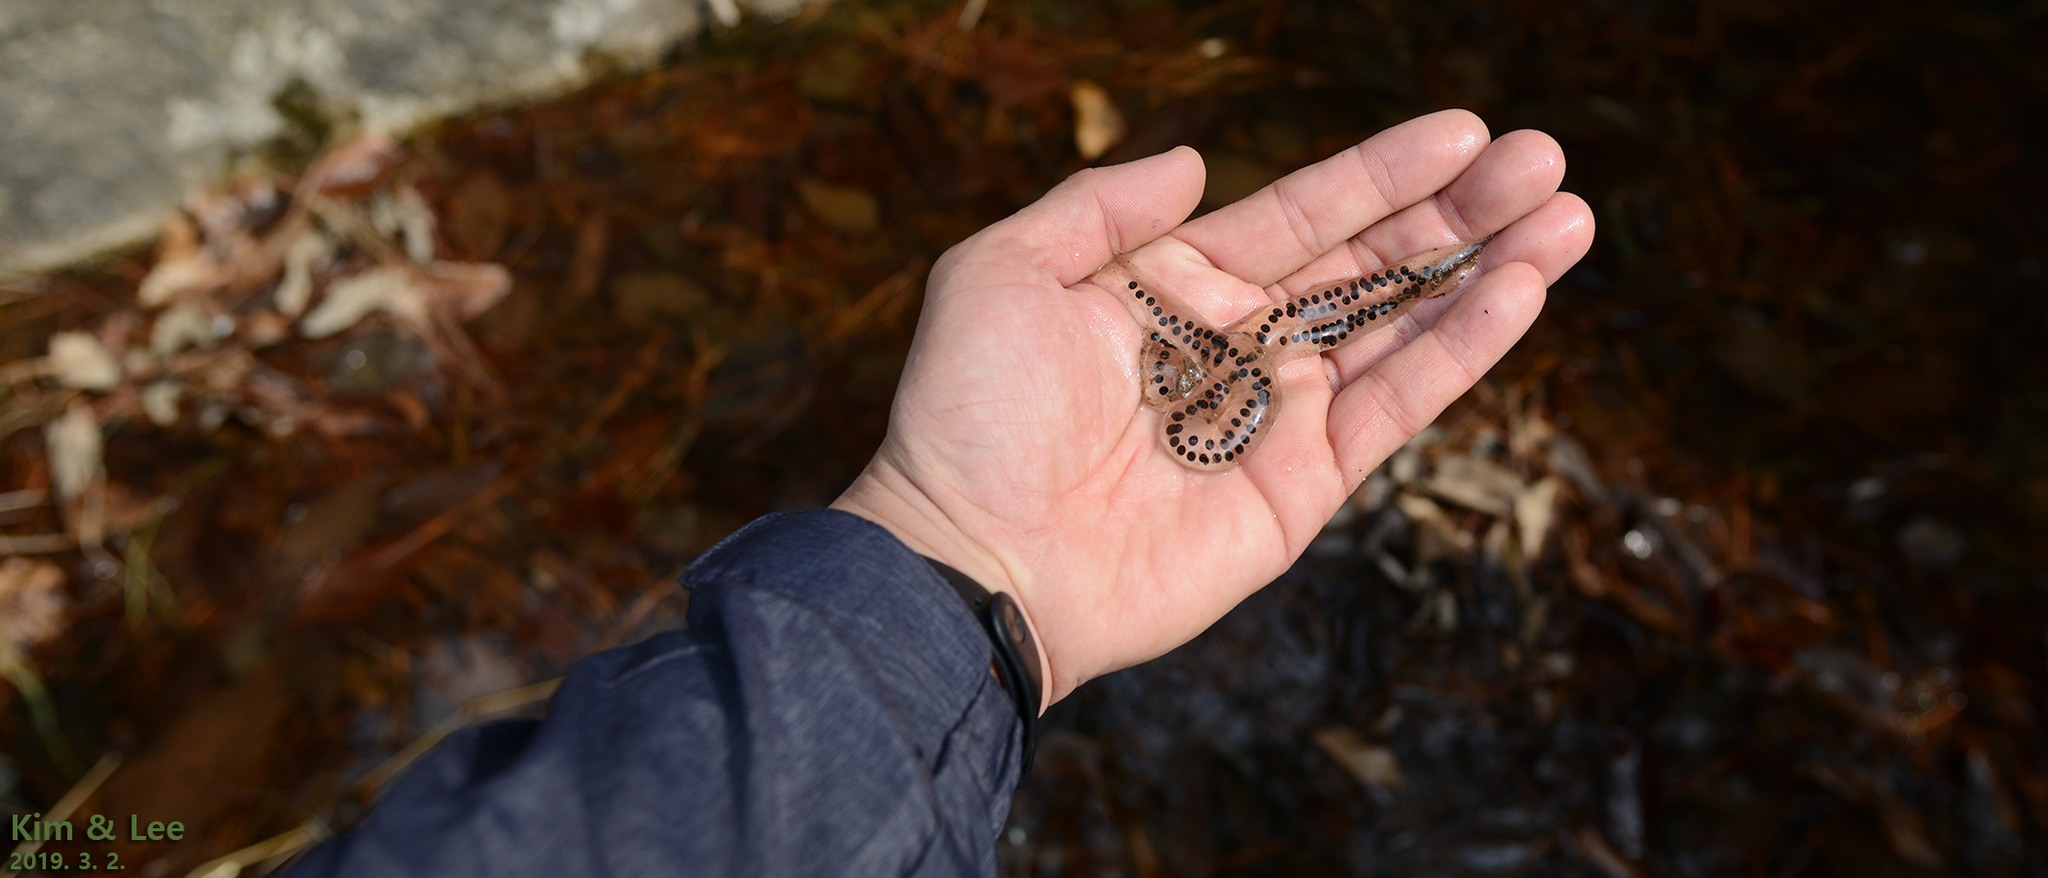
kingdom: Animalia
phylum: Chordata
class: Amphibia
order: Anura
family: Bufonidae
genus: Bufo
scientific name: Bufo gargarizans
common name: Asiatic toad
